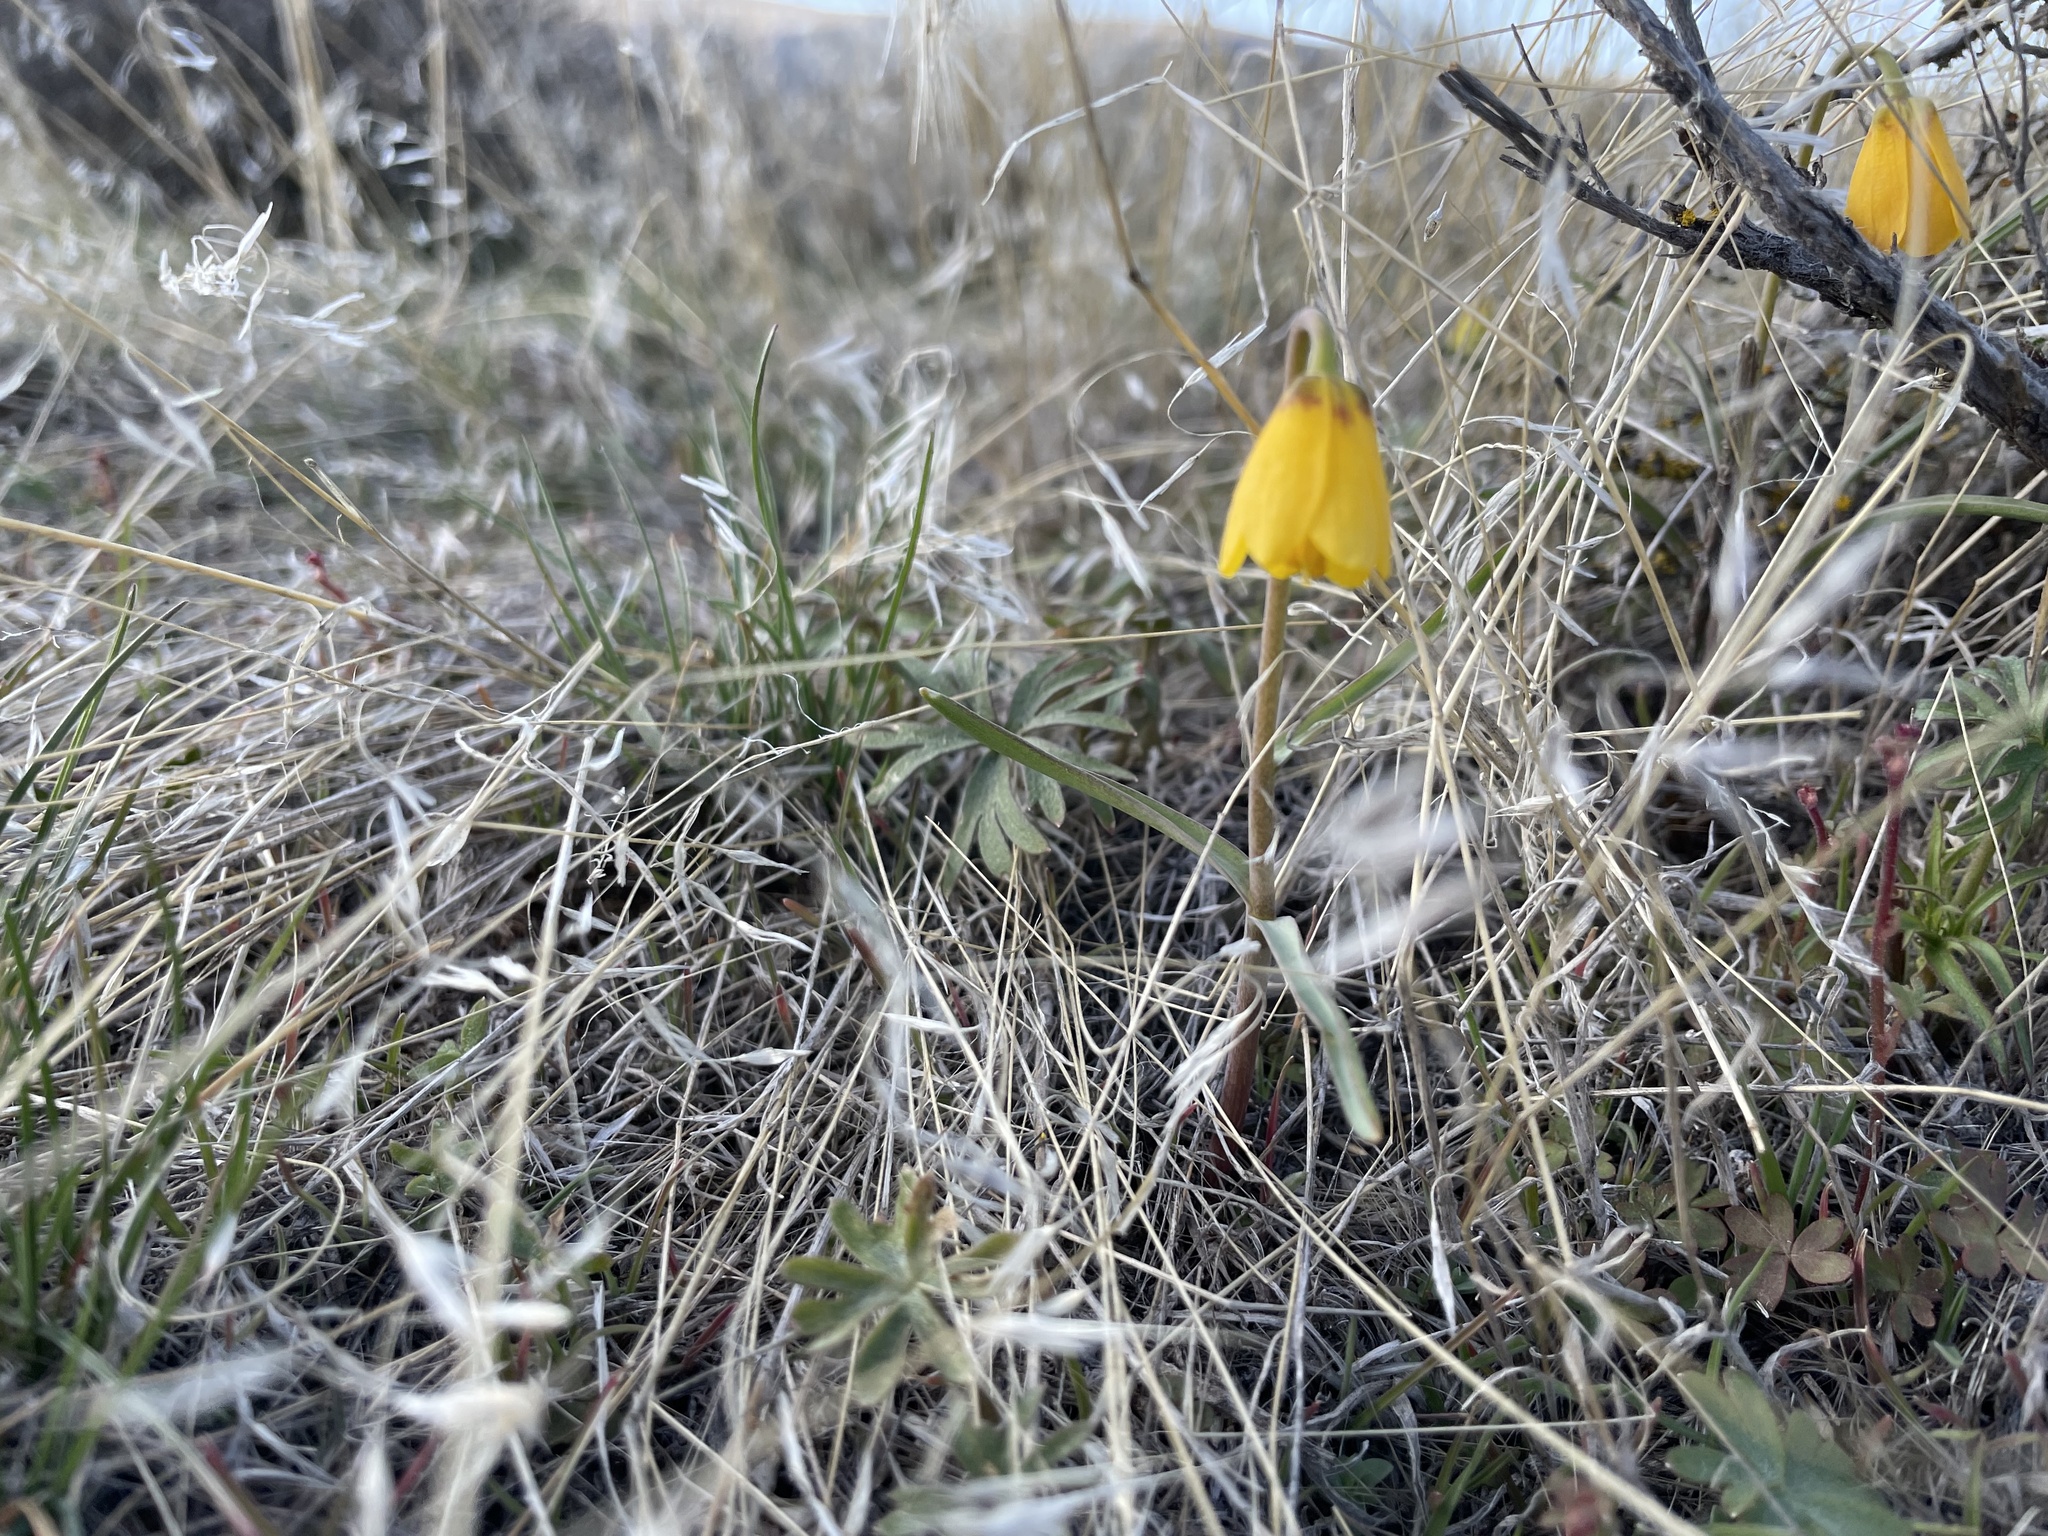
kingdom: Plantae
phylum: Tracheophyta
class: Liliopsida
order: Liliales
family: Liliaceae
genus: Fritillaria
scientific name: Fritillaria pudica
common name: Yellow fritillary
